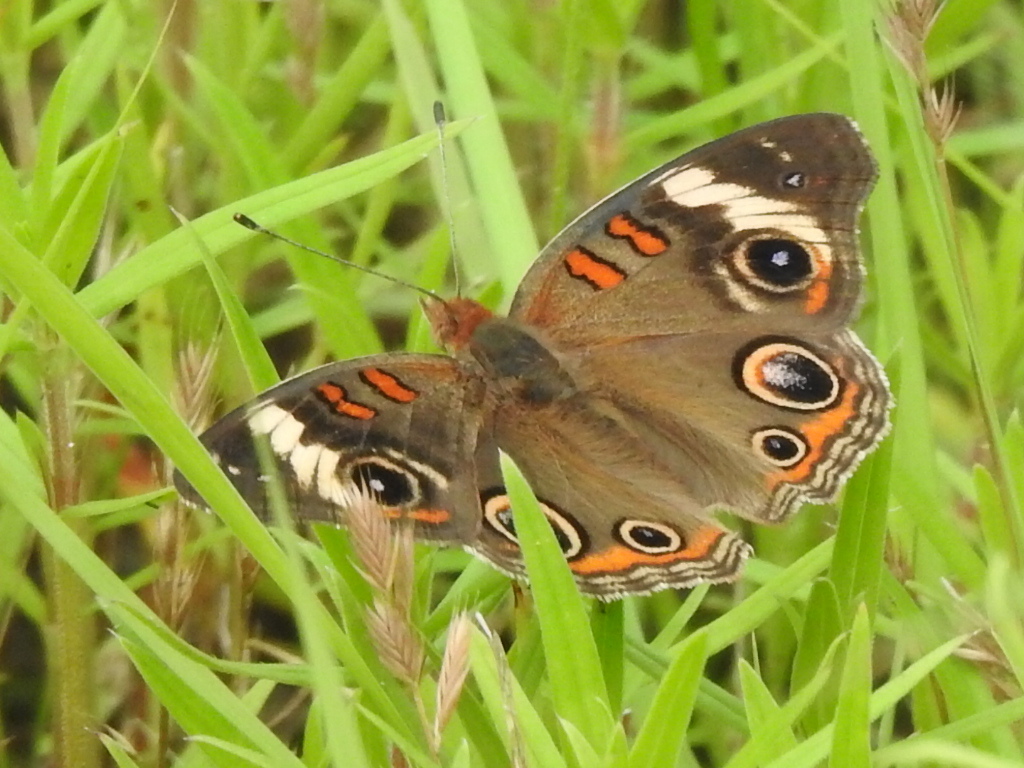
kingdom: Animalia
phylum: Arthropoda
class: Insecta
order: Lepidoptera
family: Nymphalidae
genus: Junonia
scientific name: Junonia coenia
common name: Common buckeye
